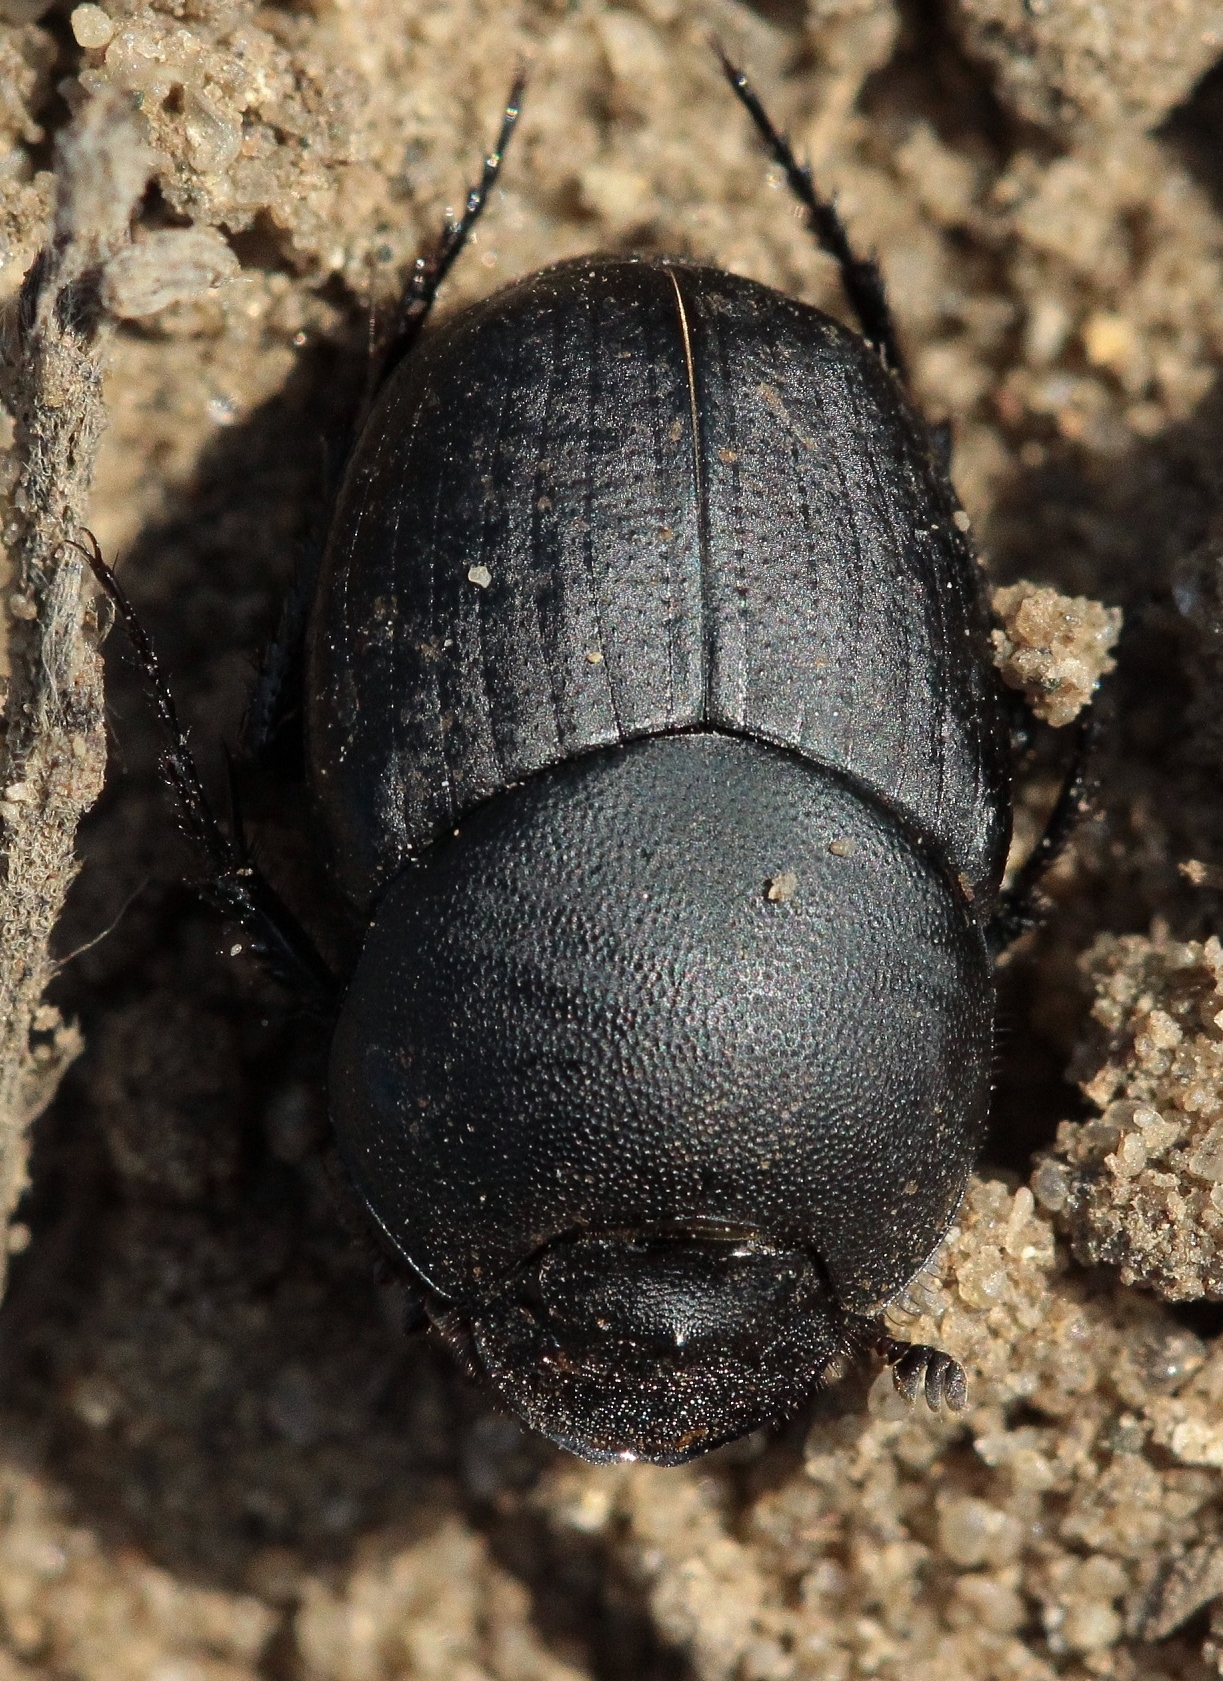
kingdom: Animalia
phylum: Arthropoda
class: Insecta
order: Coleoptera
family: Scarabaeidae
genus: Euonthophagus
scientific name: Euonthophagus amyntas
